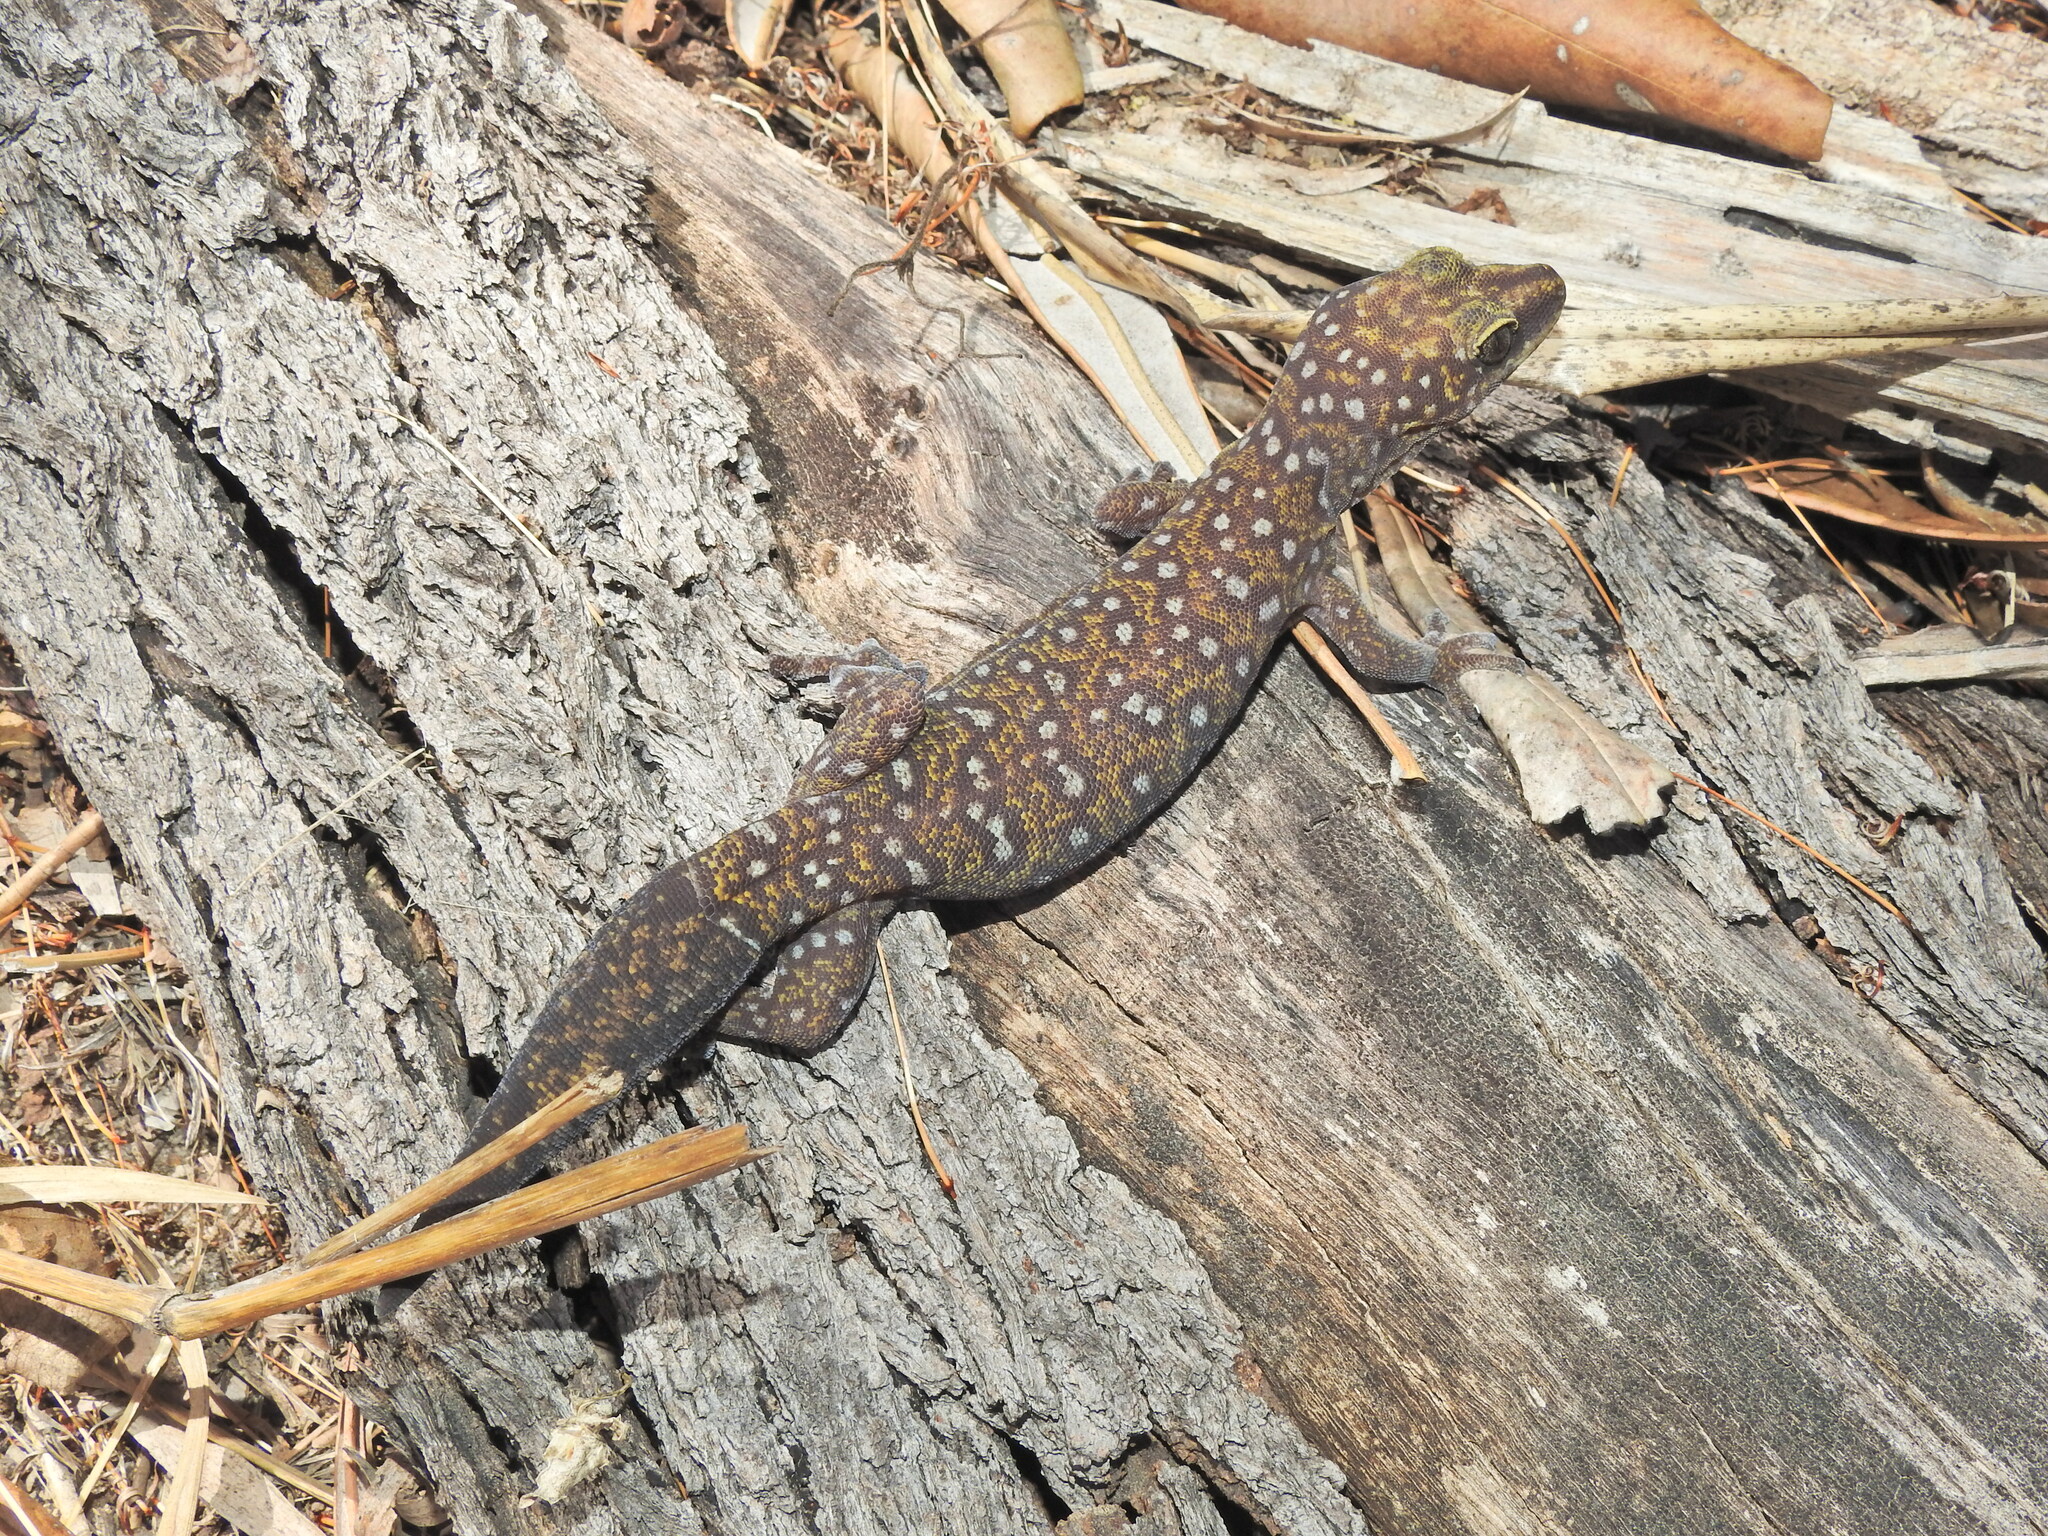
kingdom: Animalia
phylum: Chordata
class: Squamata
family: Diplodactylidae
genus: Oedura
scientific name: Oedura tryoni
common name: Southern spotted velvet gecko
